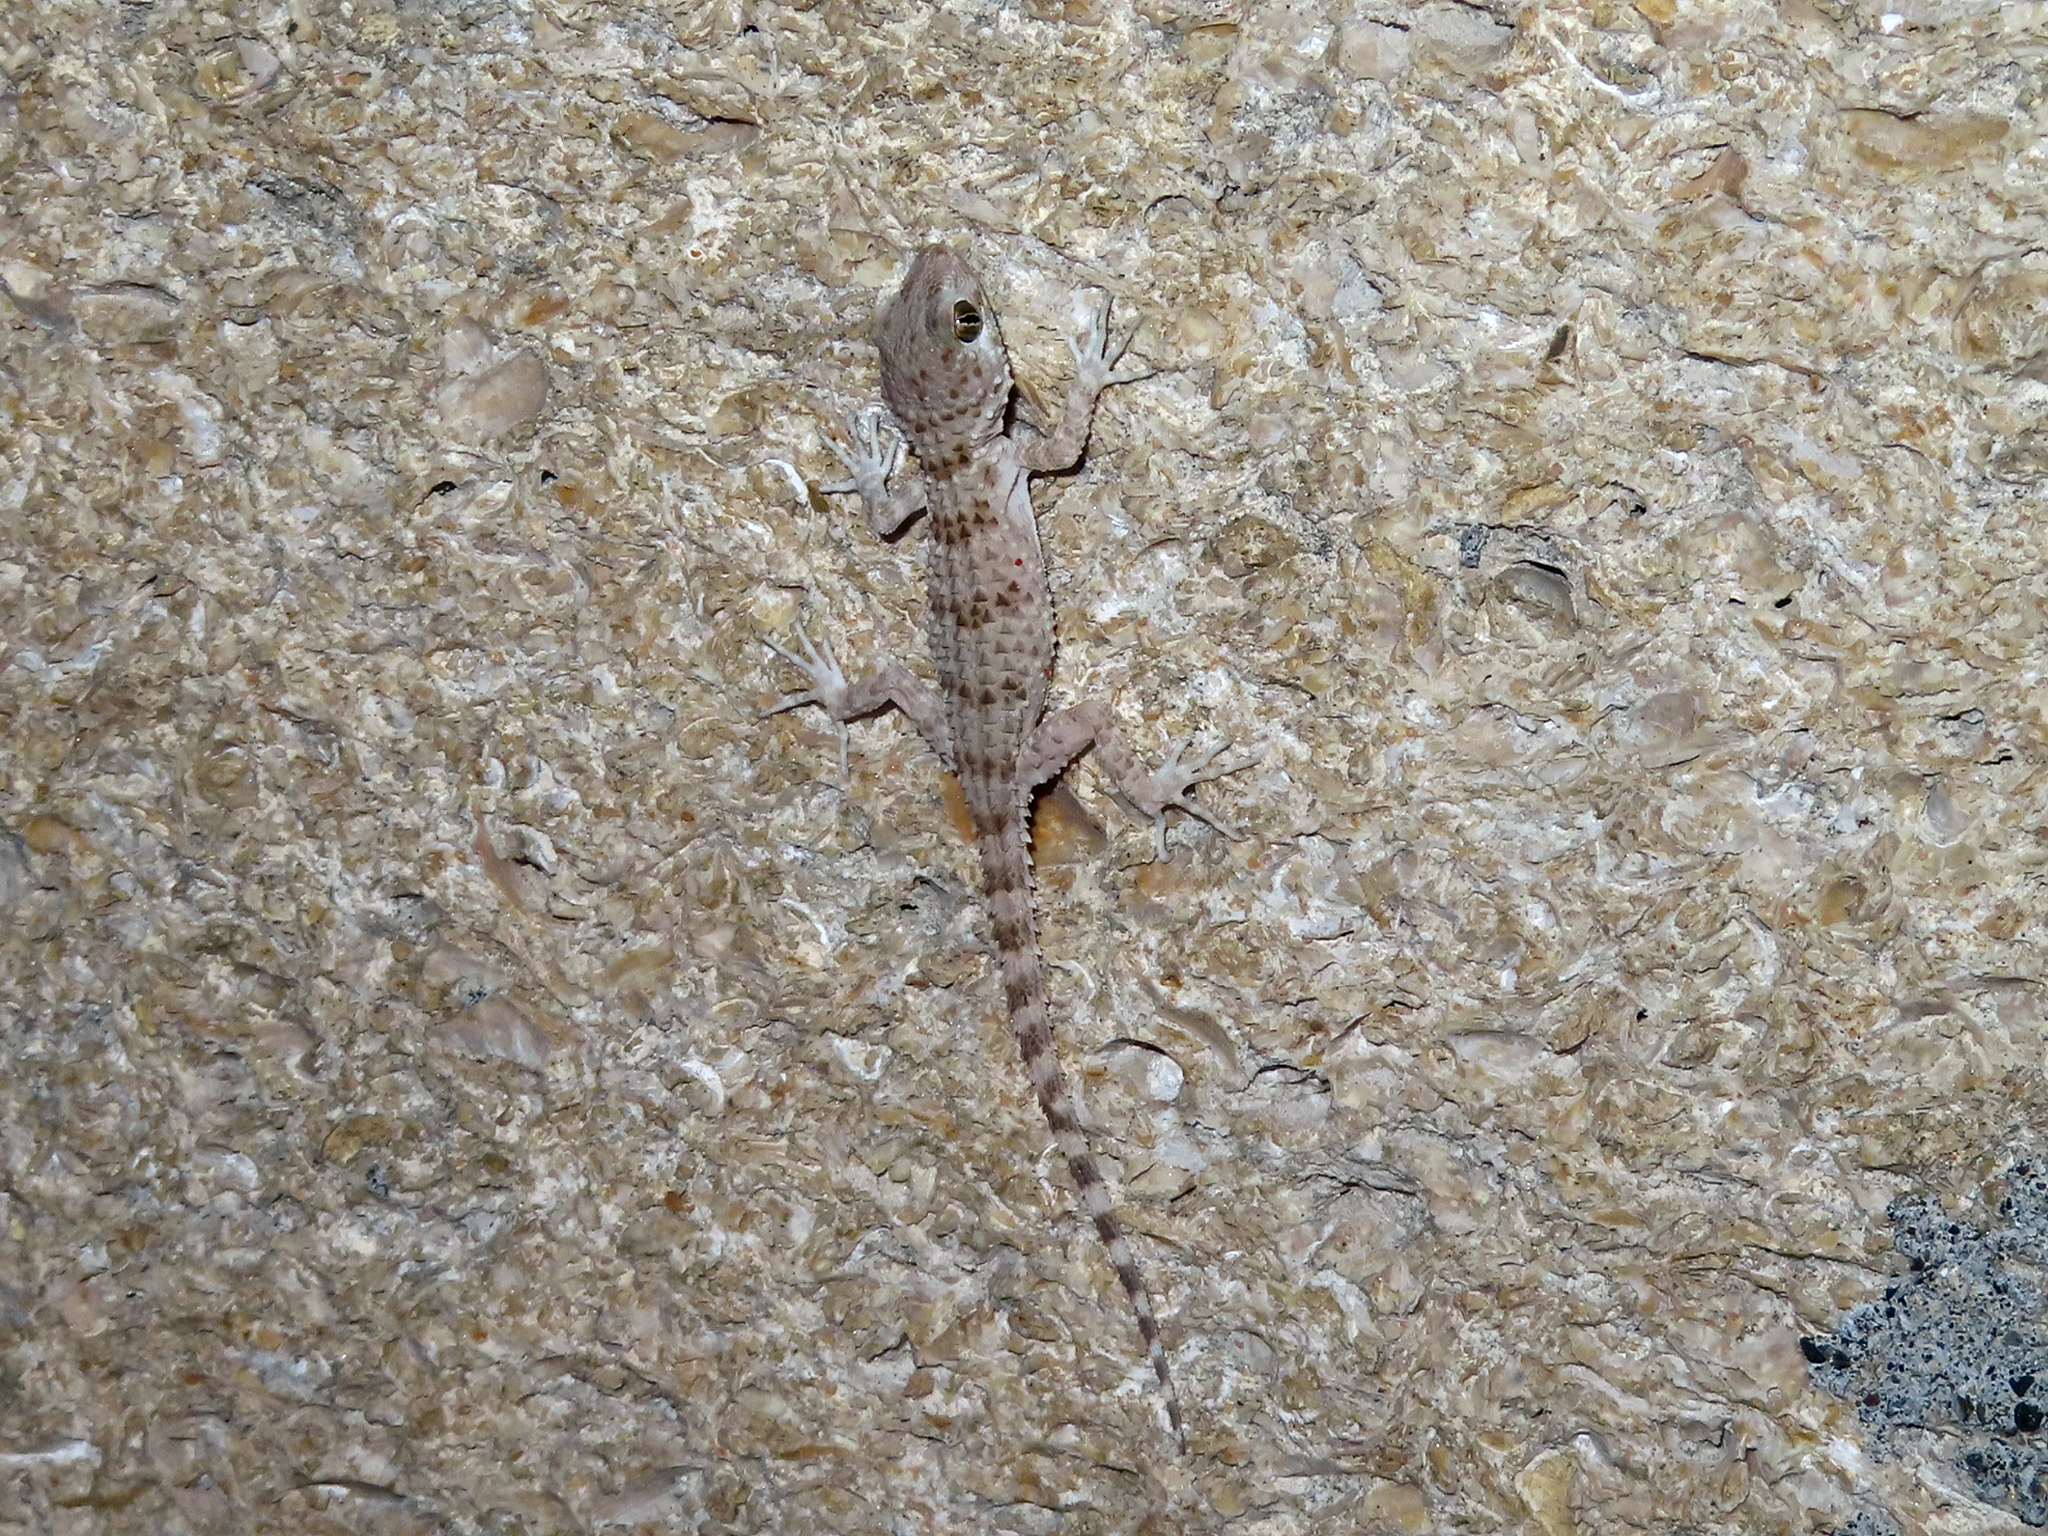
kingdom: Animalia
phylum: Chordata
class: Squamata
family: Gekkonidae
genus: Tenuidactylus
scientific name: Tenuidactylus caspius
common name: Caspian bent-toed gecko
